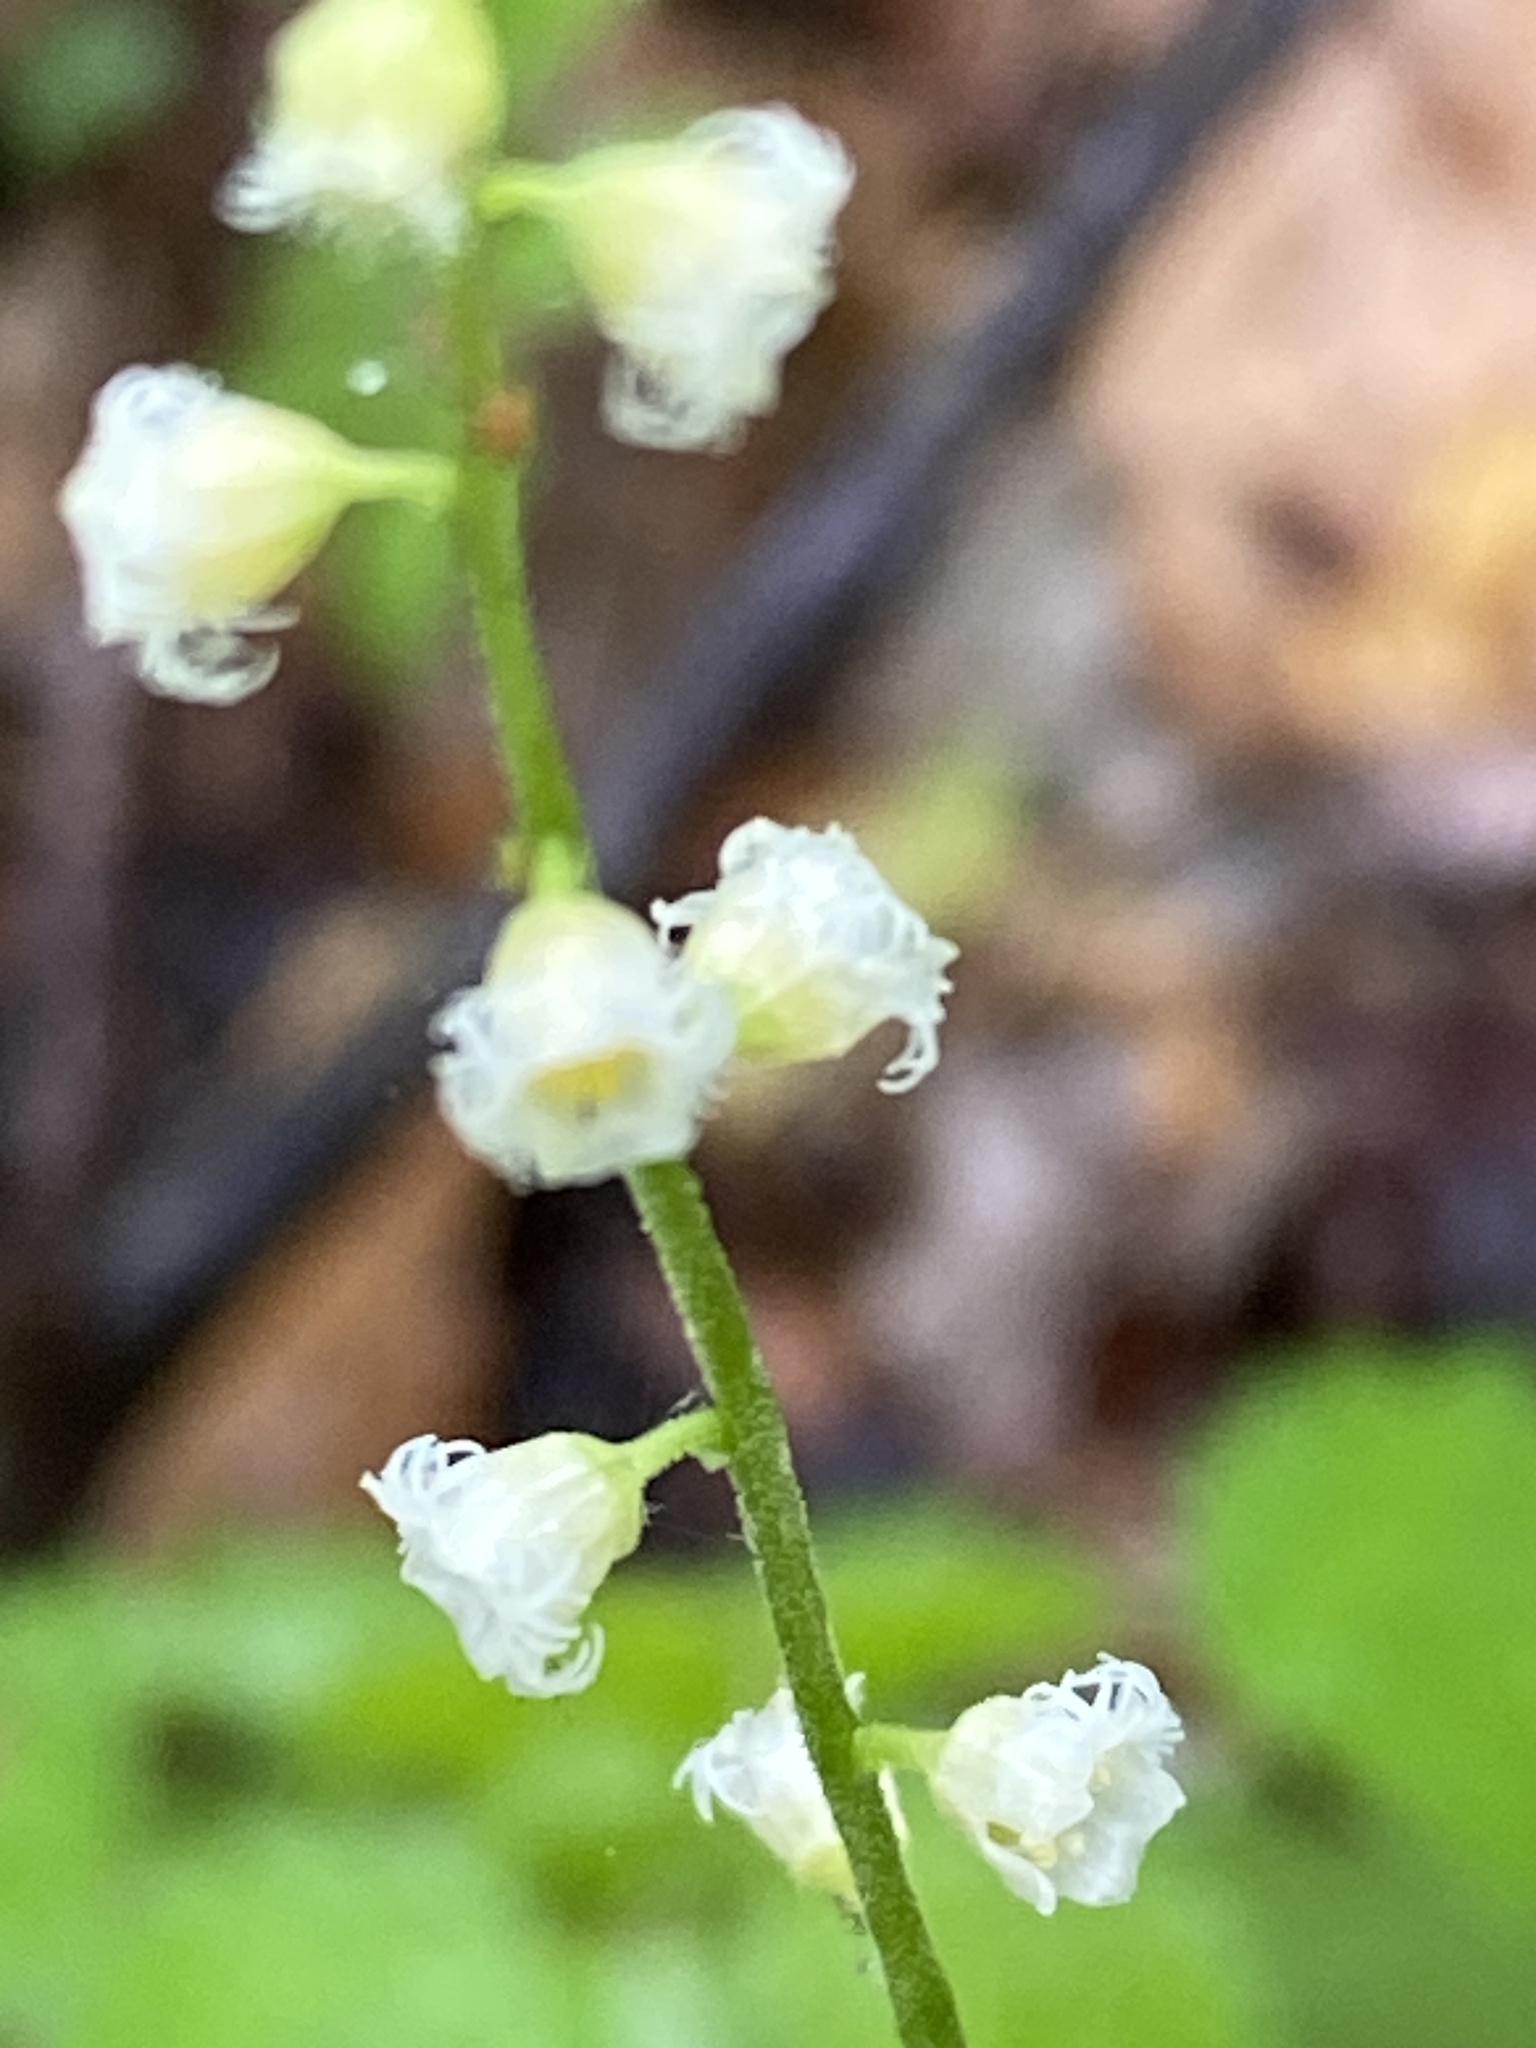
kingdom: Plantae
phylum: Tracheophyta
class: Magnoliopsida
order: Saxifragales
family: Saxifragaceae
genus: Mitella
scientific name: Mitella diphylla
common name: Coolwort
